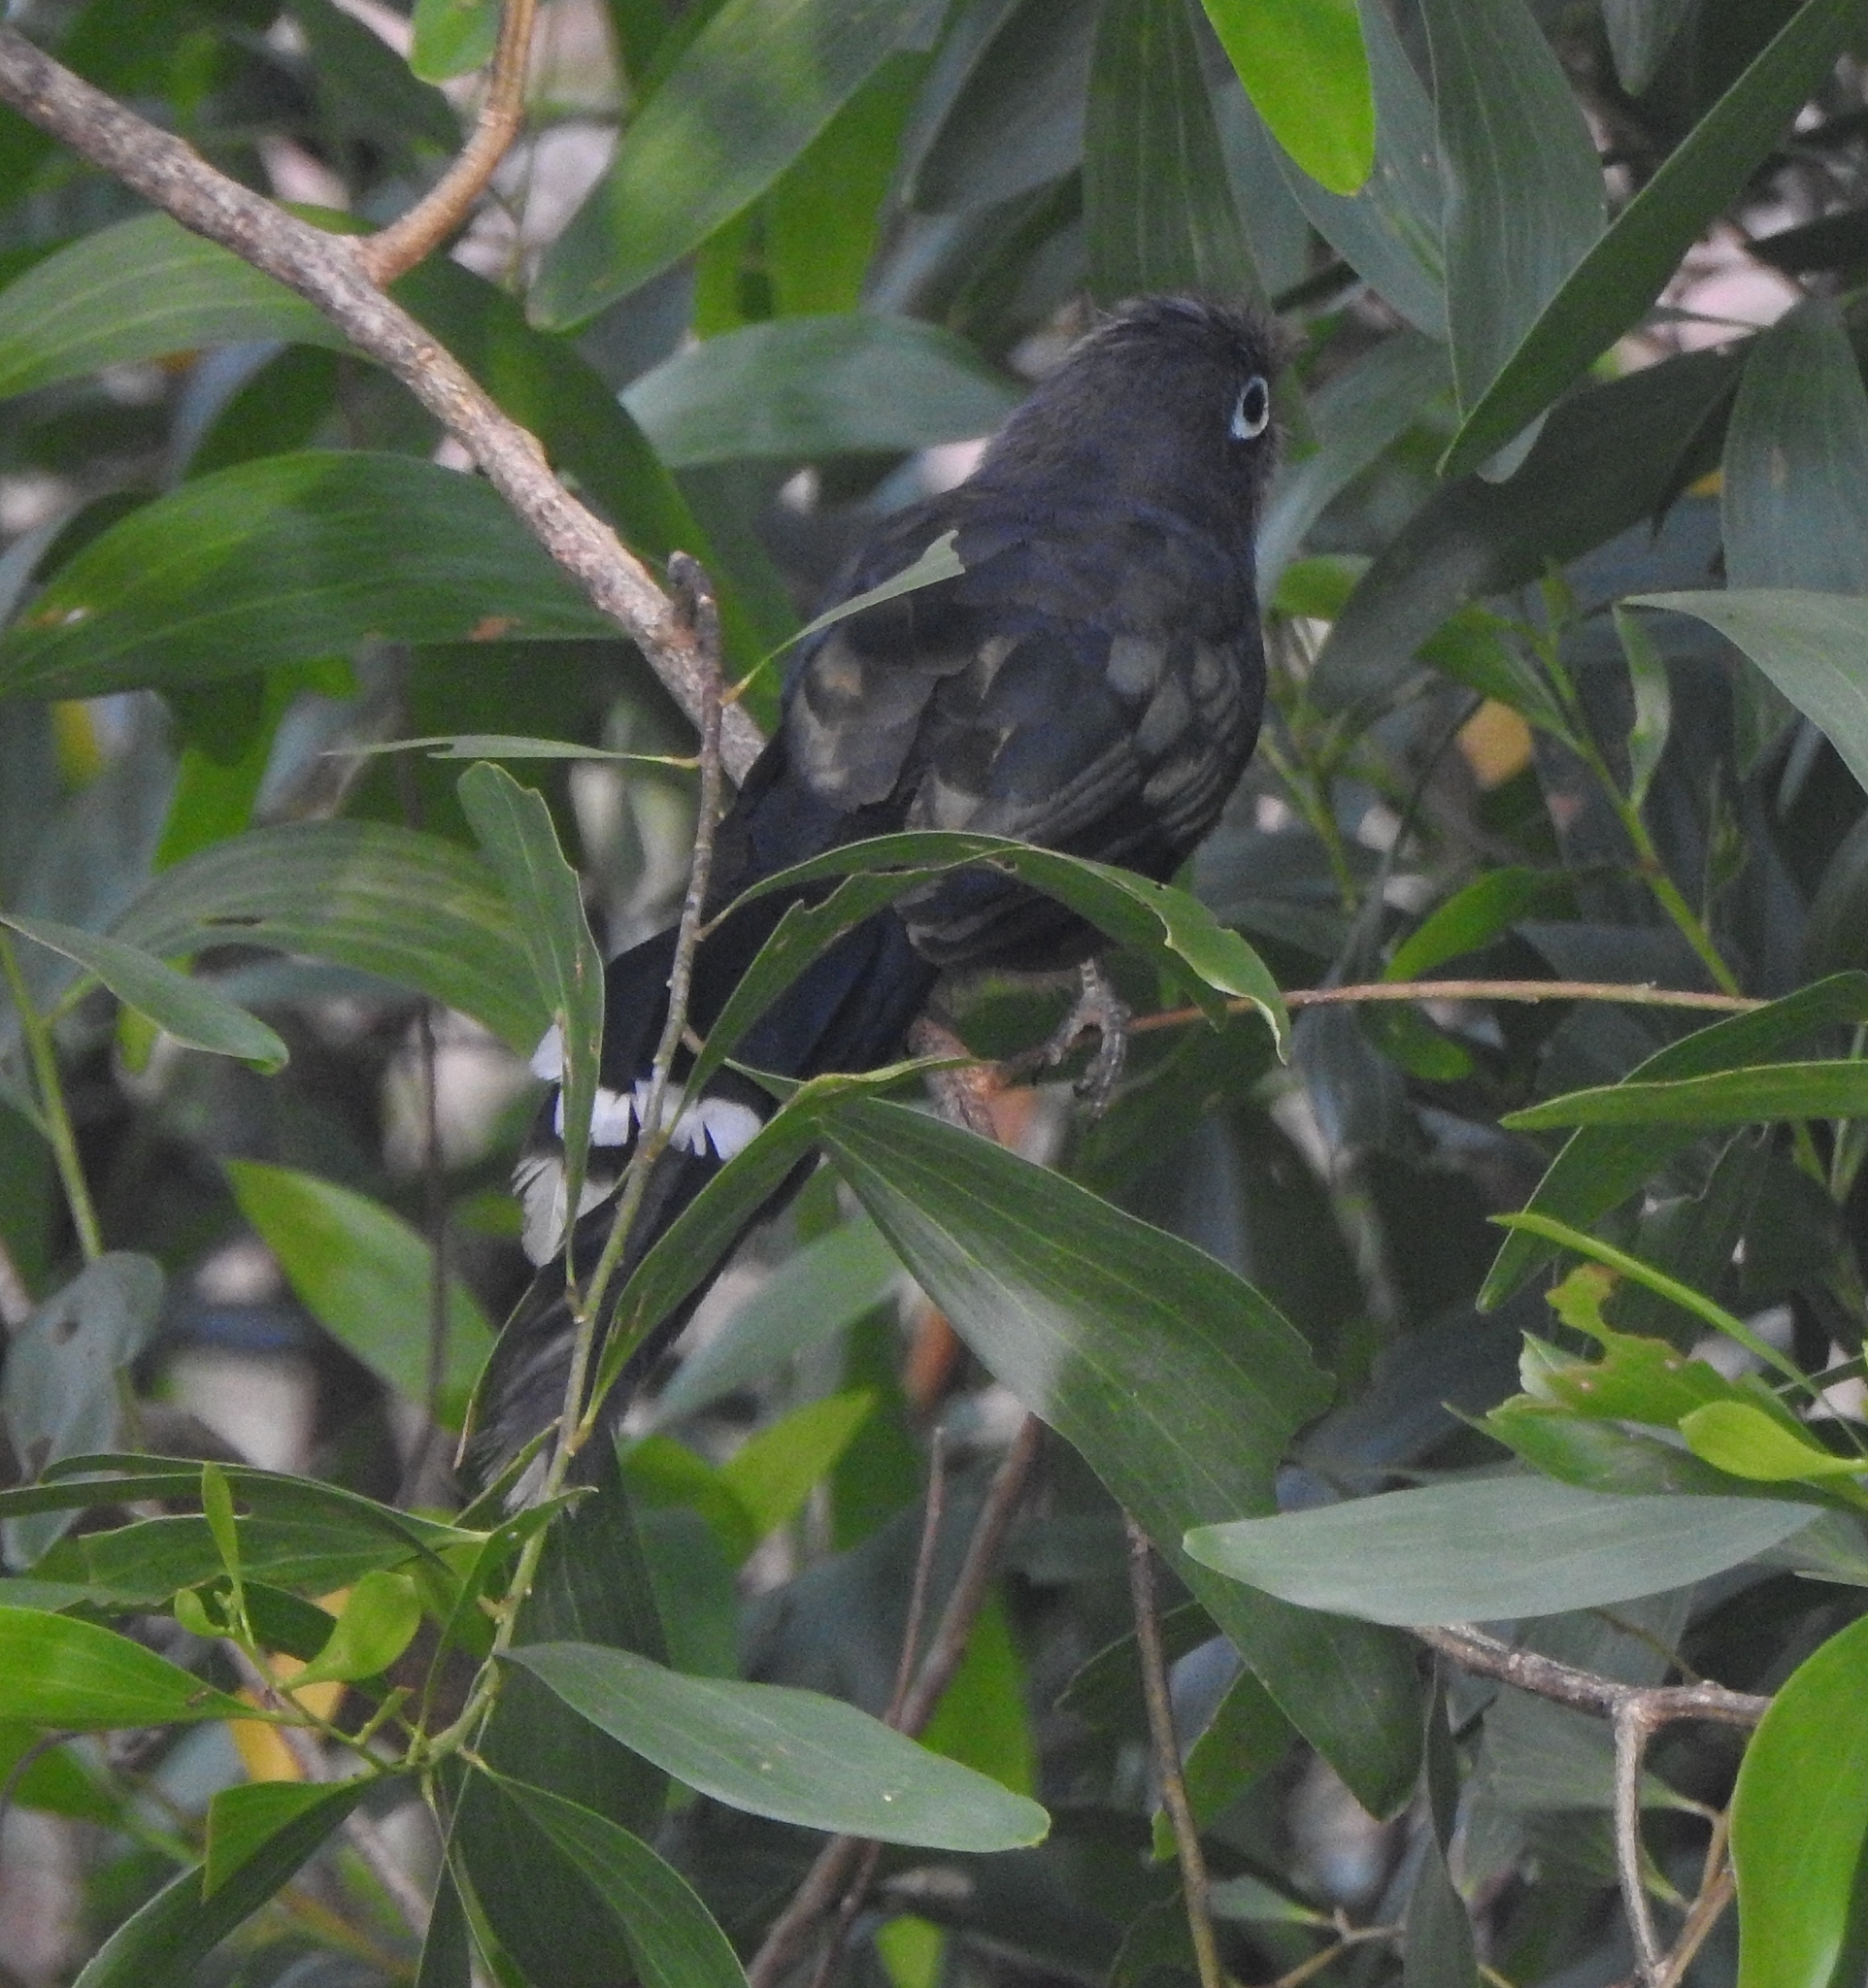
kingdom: Animalia
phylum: Chordata
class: Aves
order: Cuculiformes
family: Cuculidae
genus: Rhopodytes
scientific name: Rhopodytes viridirostris
